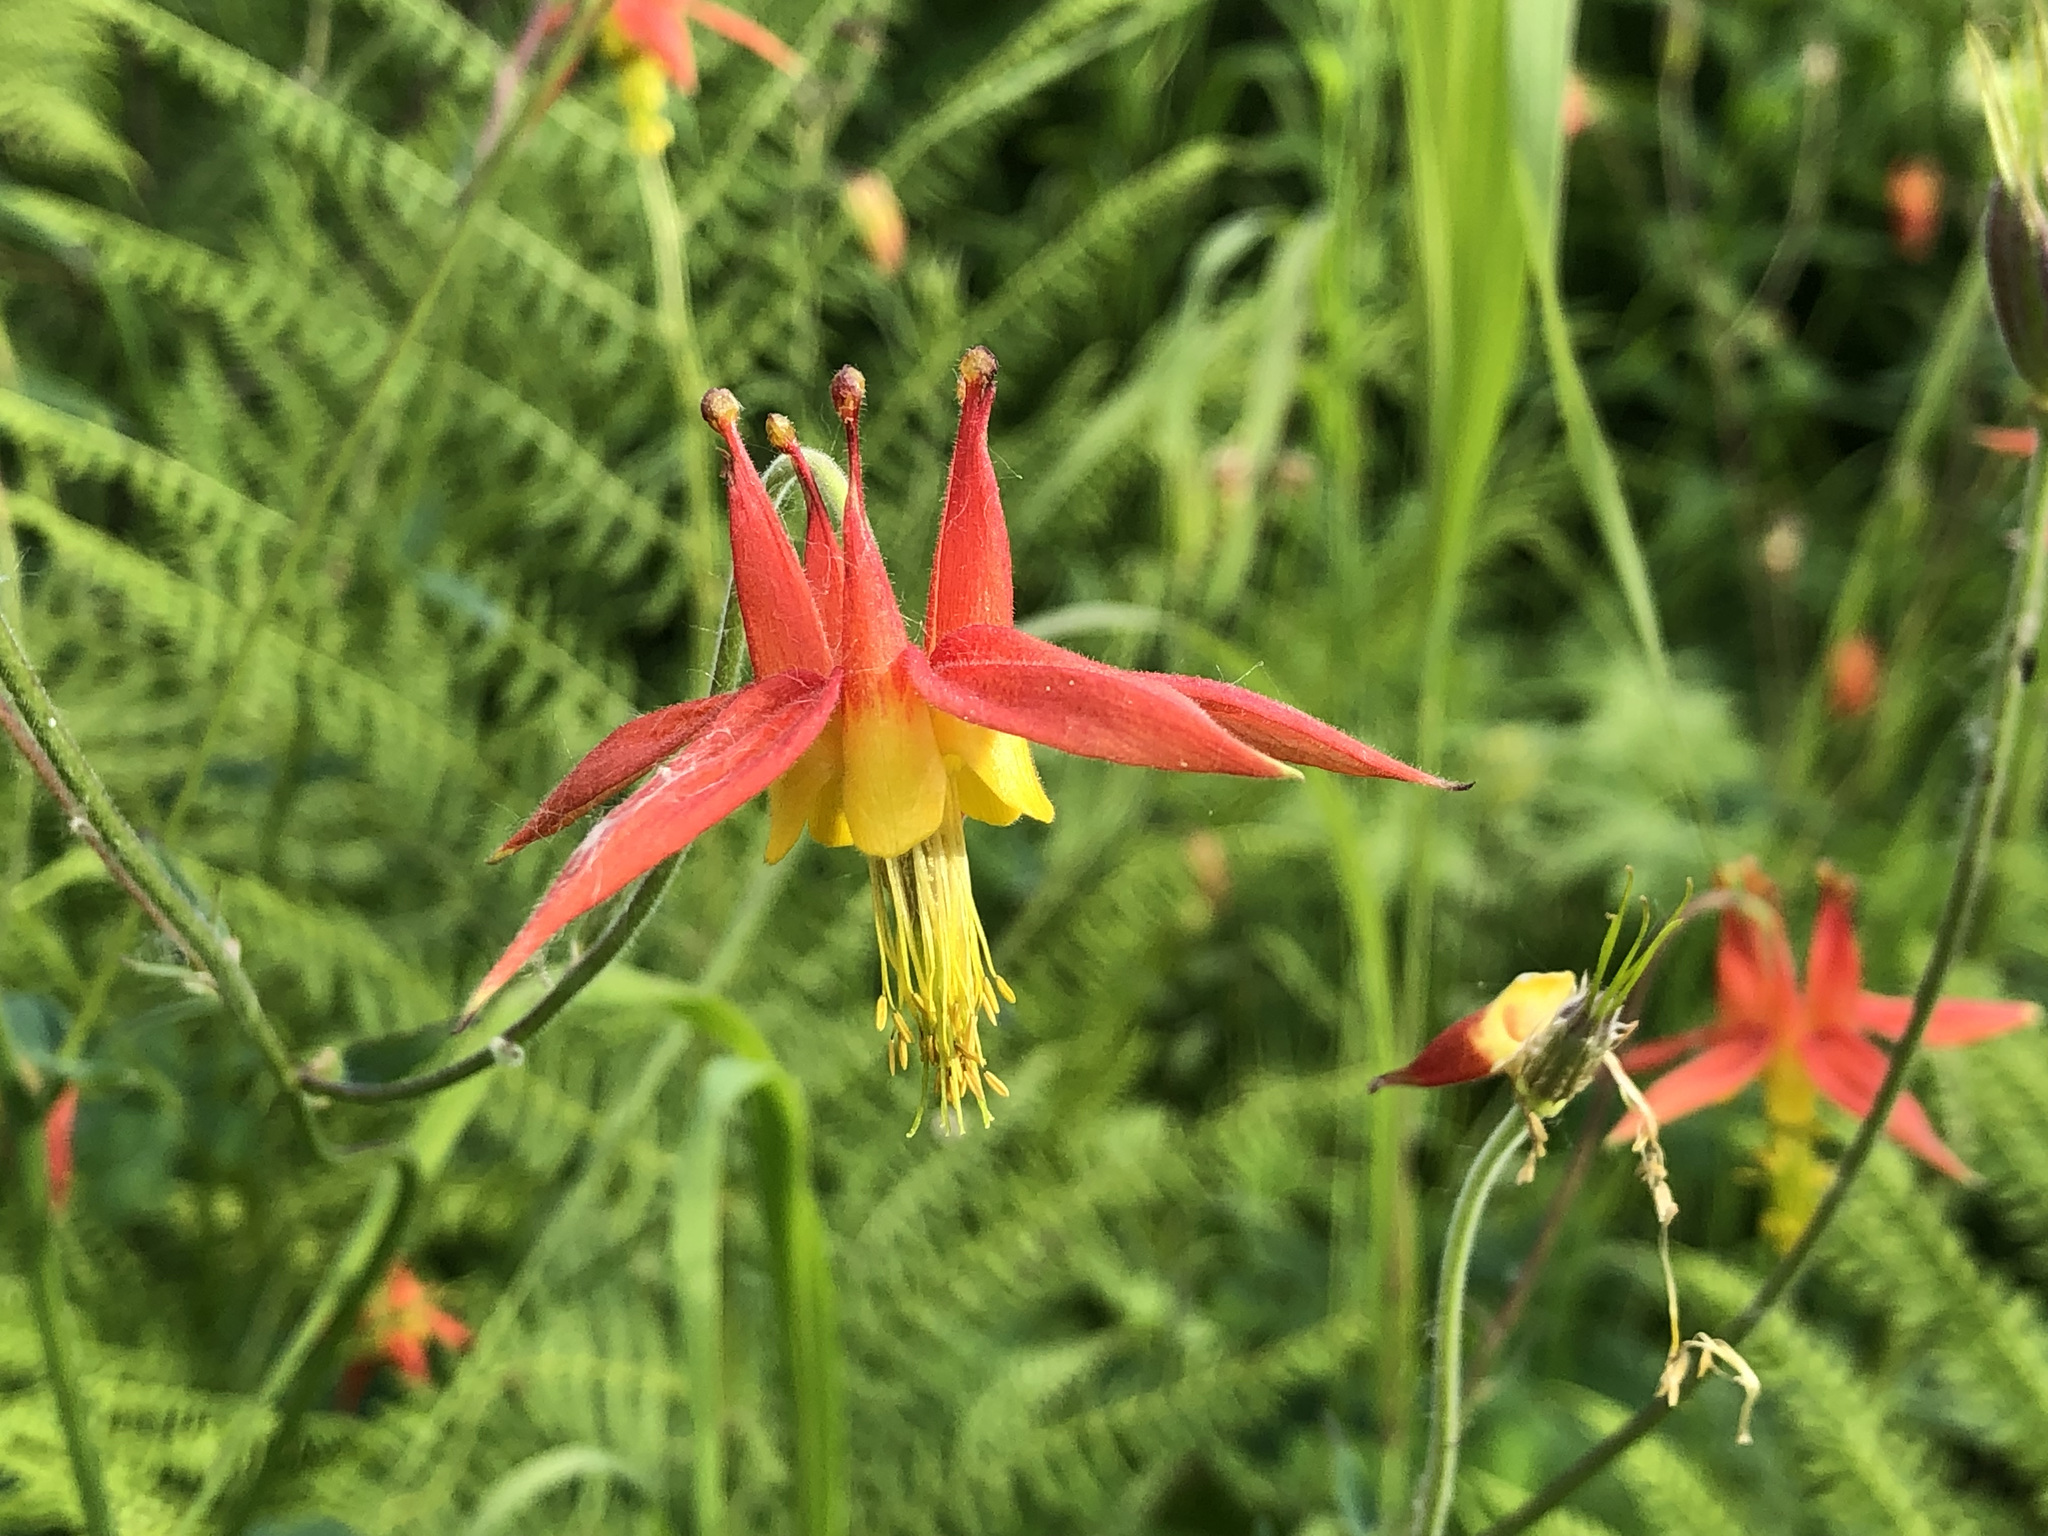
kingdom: Plantae
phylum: Tracheophyta
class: Magnoliopsida
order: Ranunculales
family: Ranunculaceae
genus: Aquilegia
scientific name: Aquilegia formosa
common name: Sitka columbine
